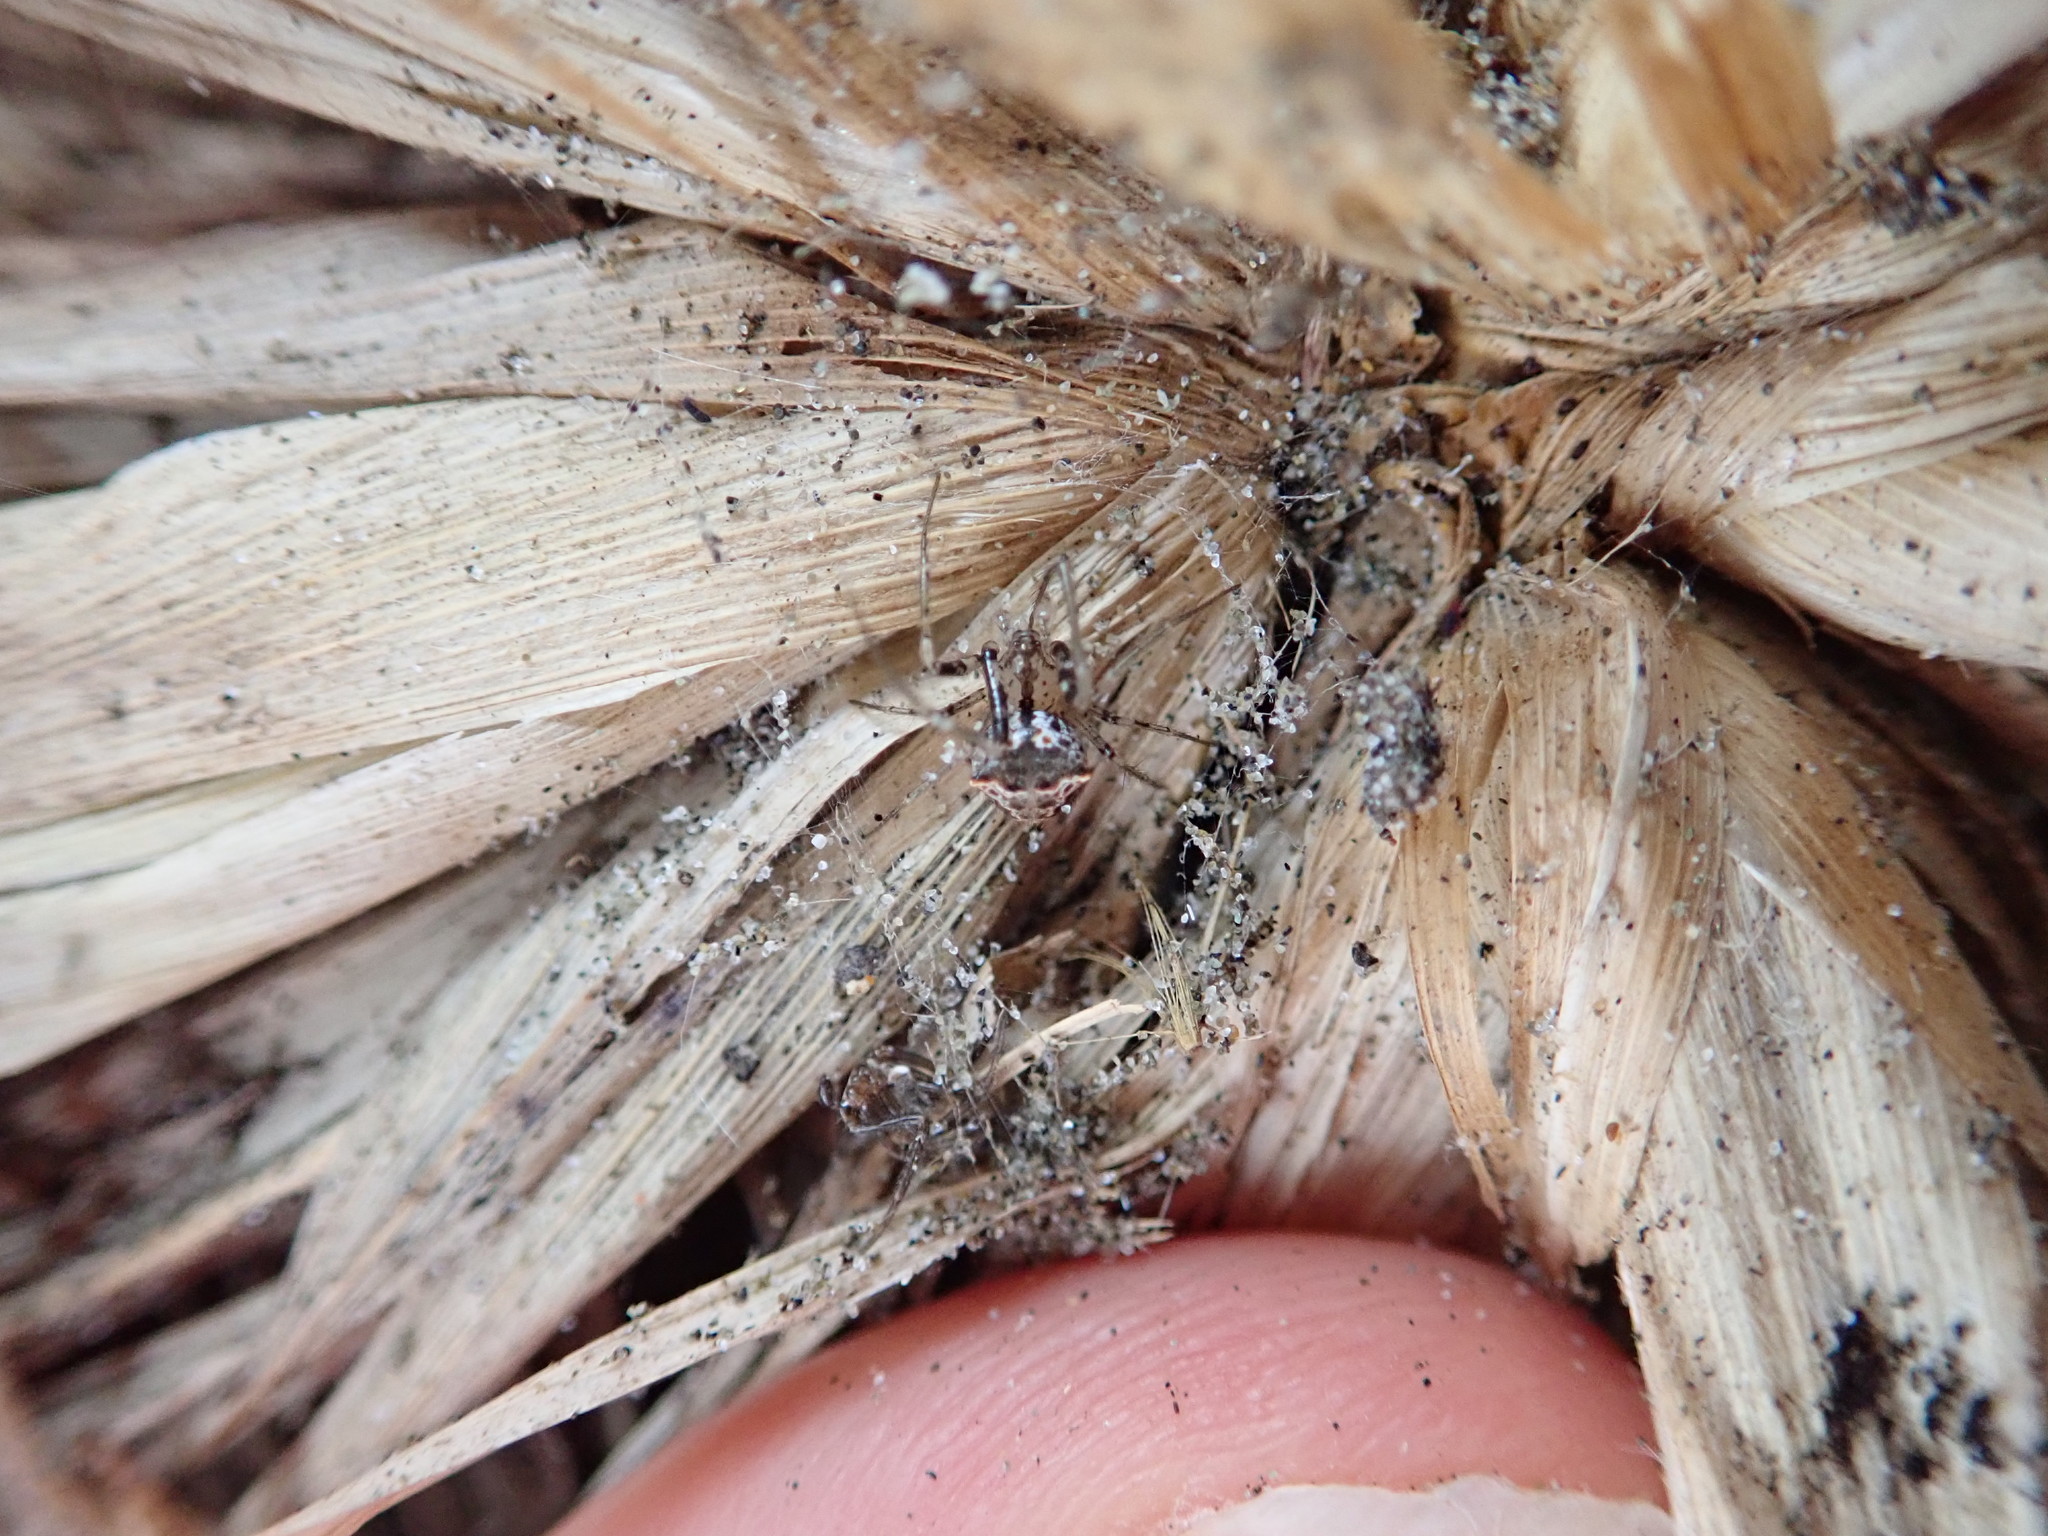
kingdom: Animalia
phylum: Arthropoda
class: Arachnida
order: Araneae
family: Mimetidae
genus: Australomimetus
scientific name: Australomimetus hartleyensis
